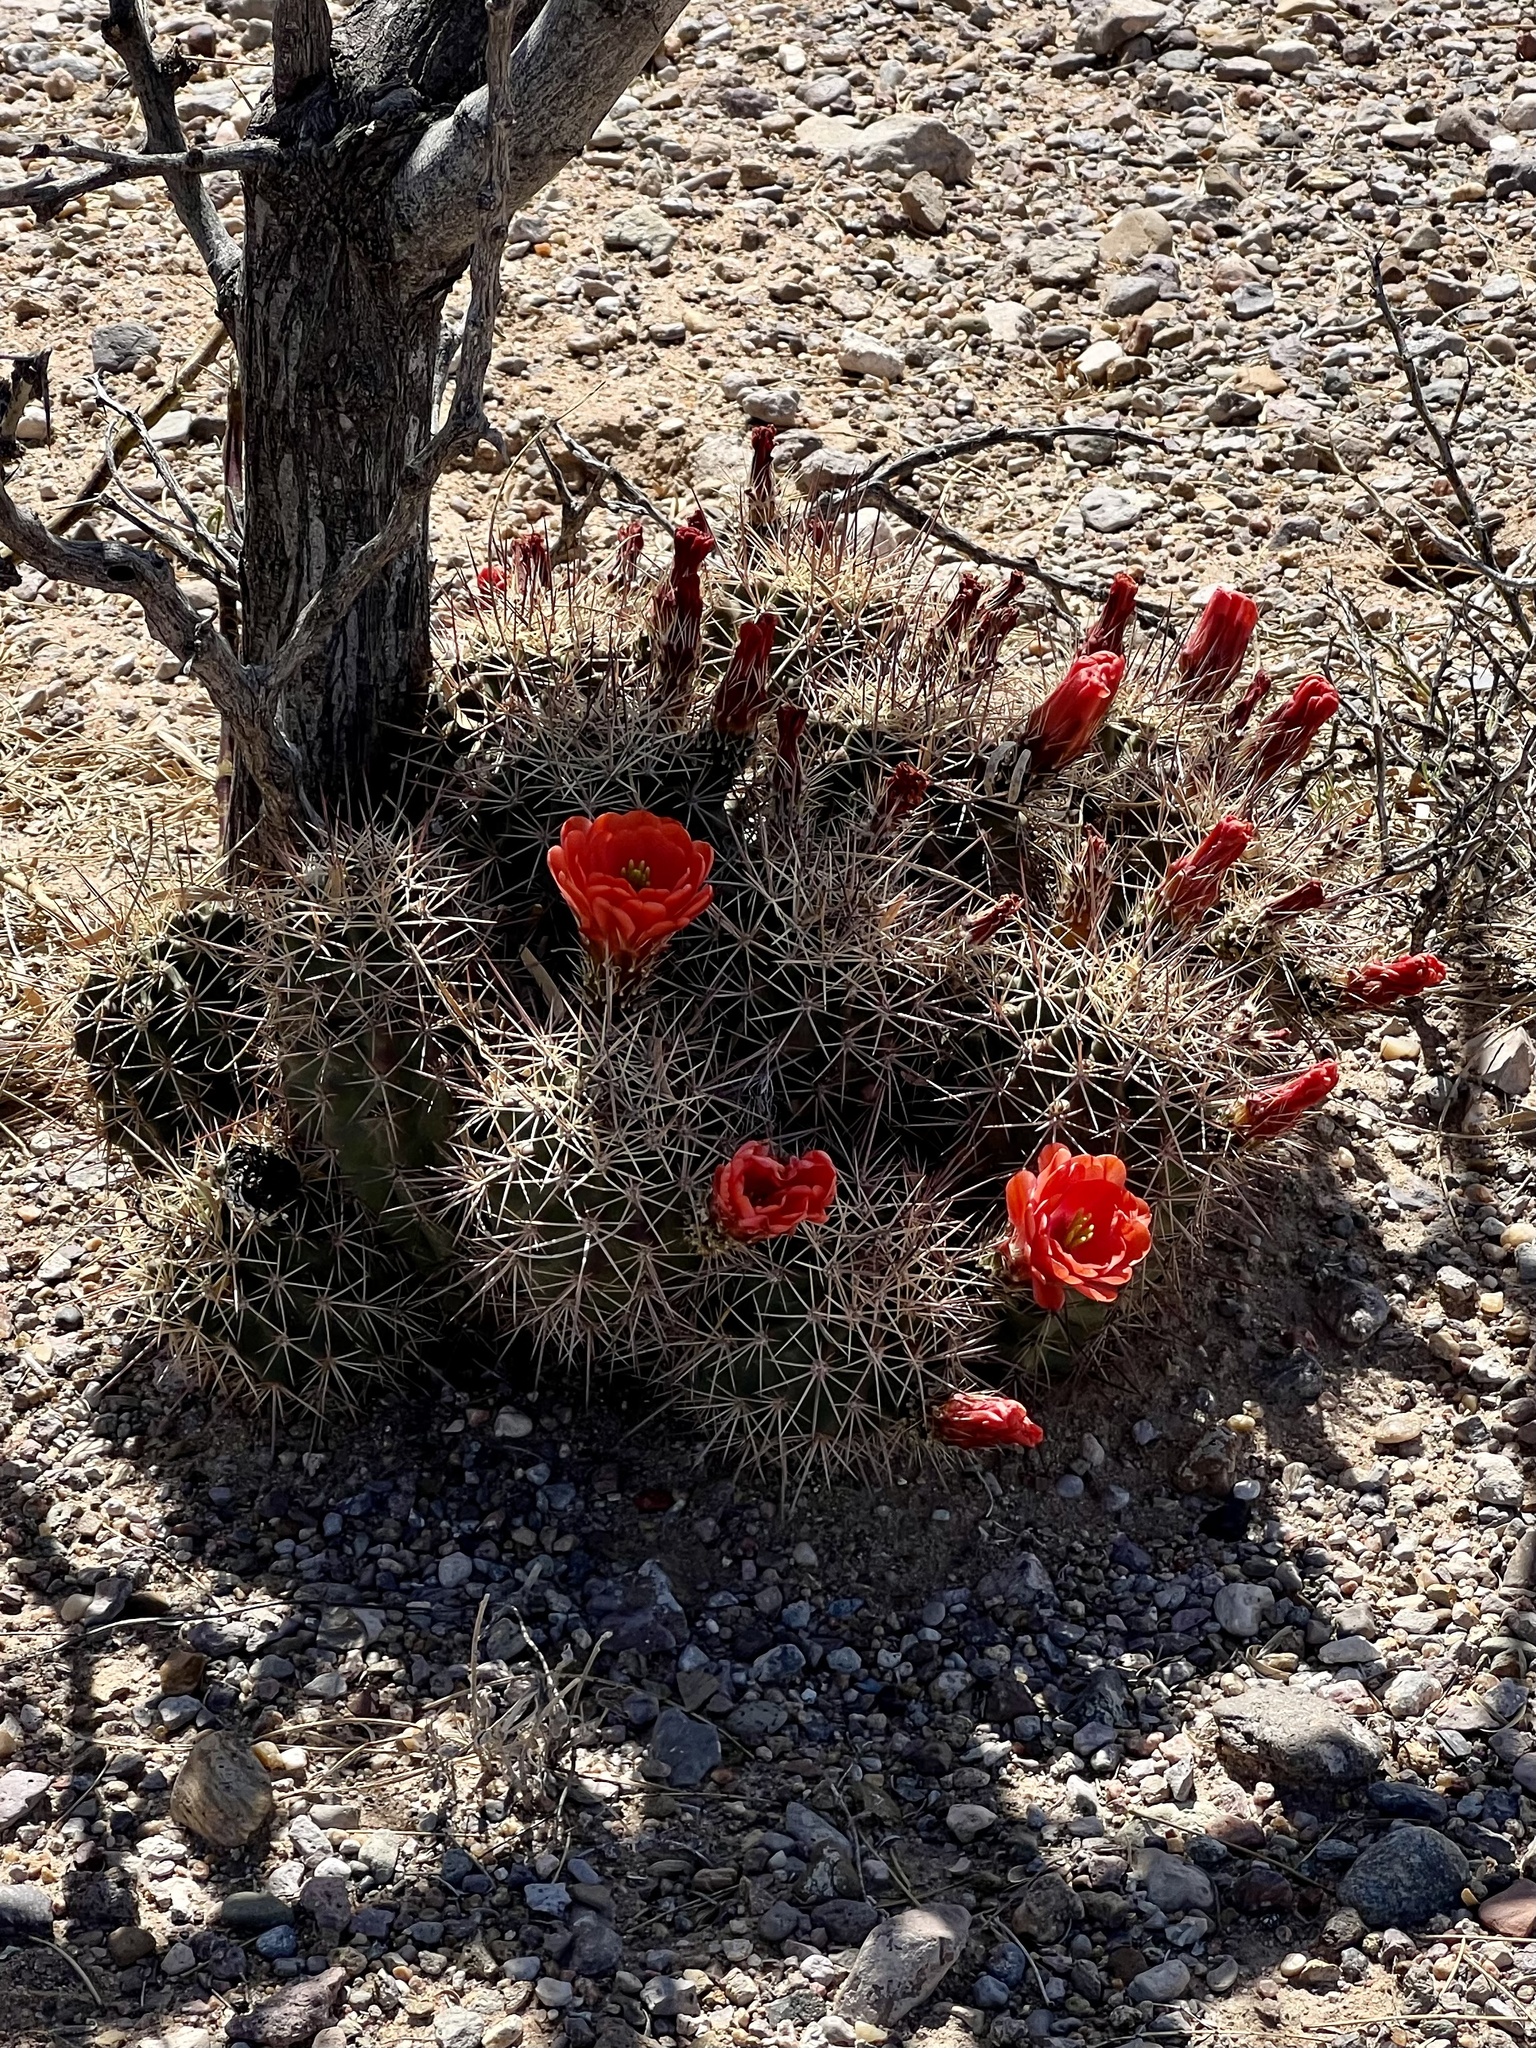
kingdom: Plantae
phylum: Tracheophyta
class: Magnoliopsida
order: Caryophyllales
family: Cactaceae
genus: Echinocereus
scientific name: Echinocereus coccineus
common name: Scarlet hedgehog cactus
